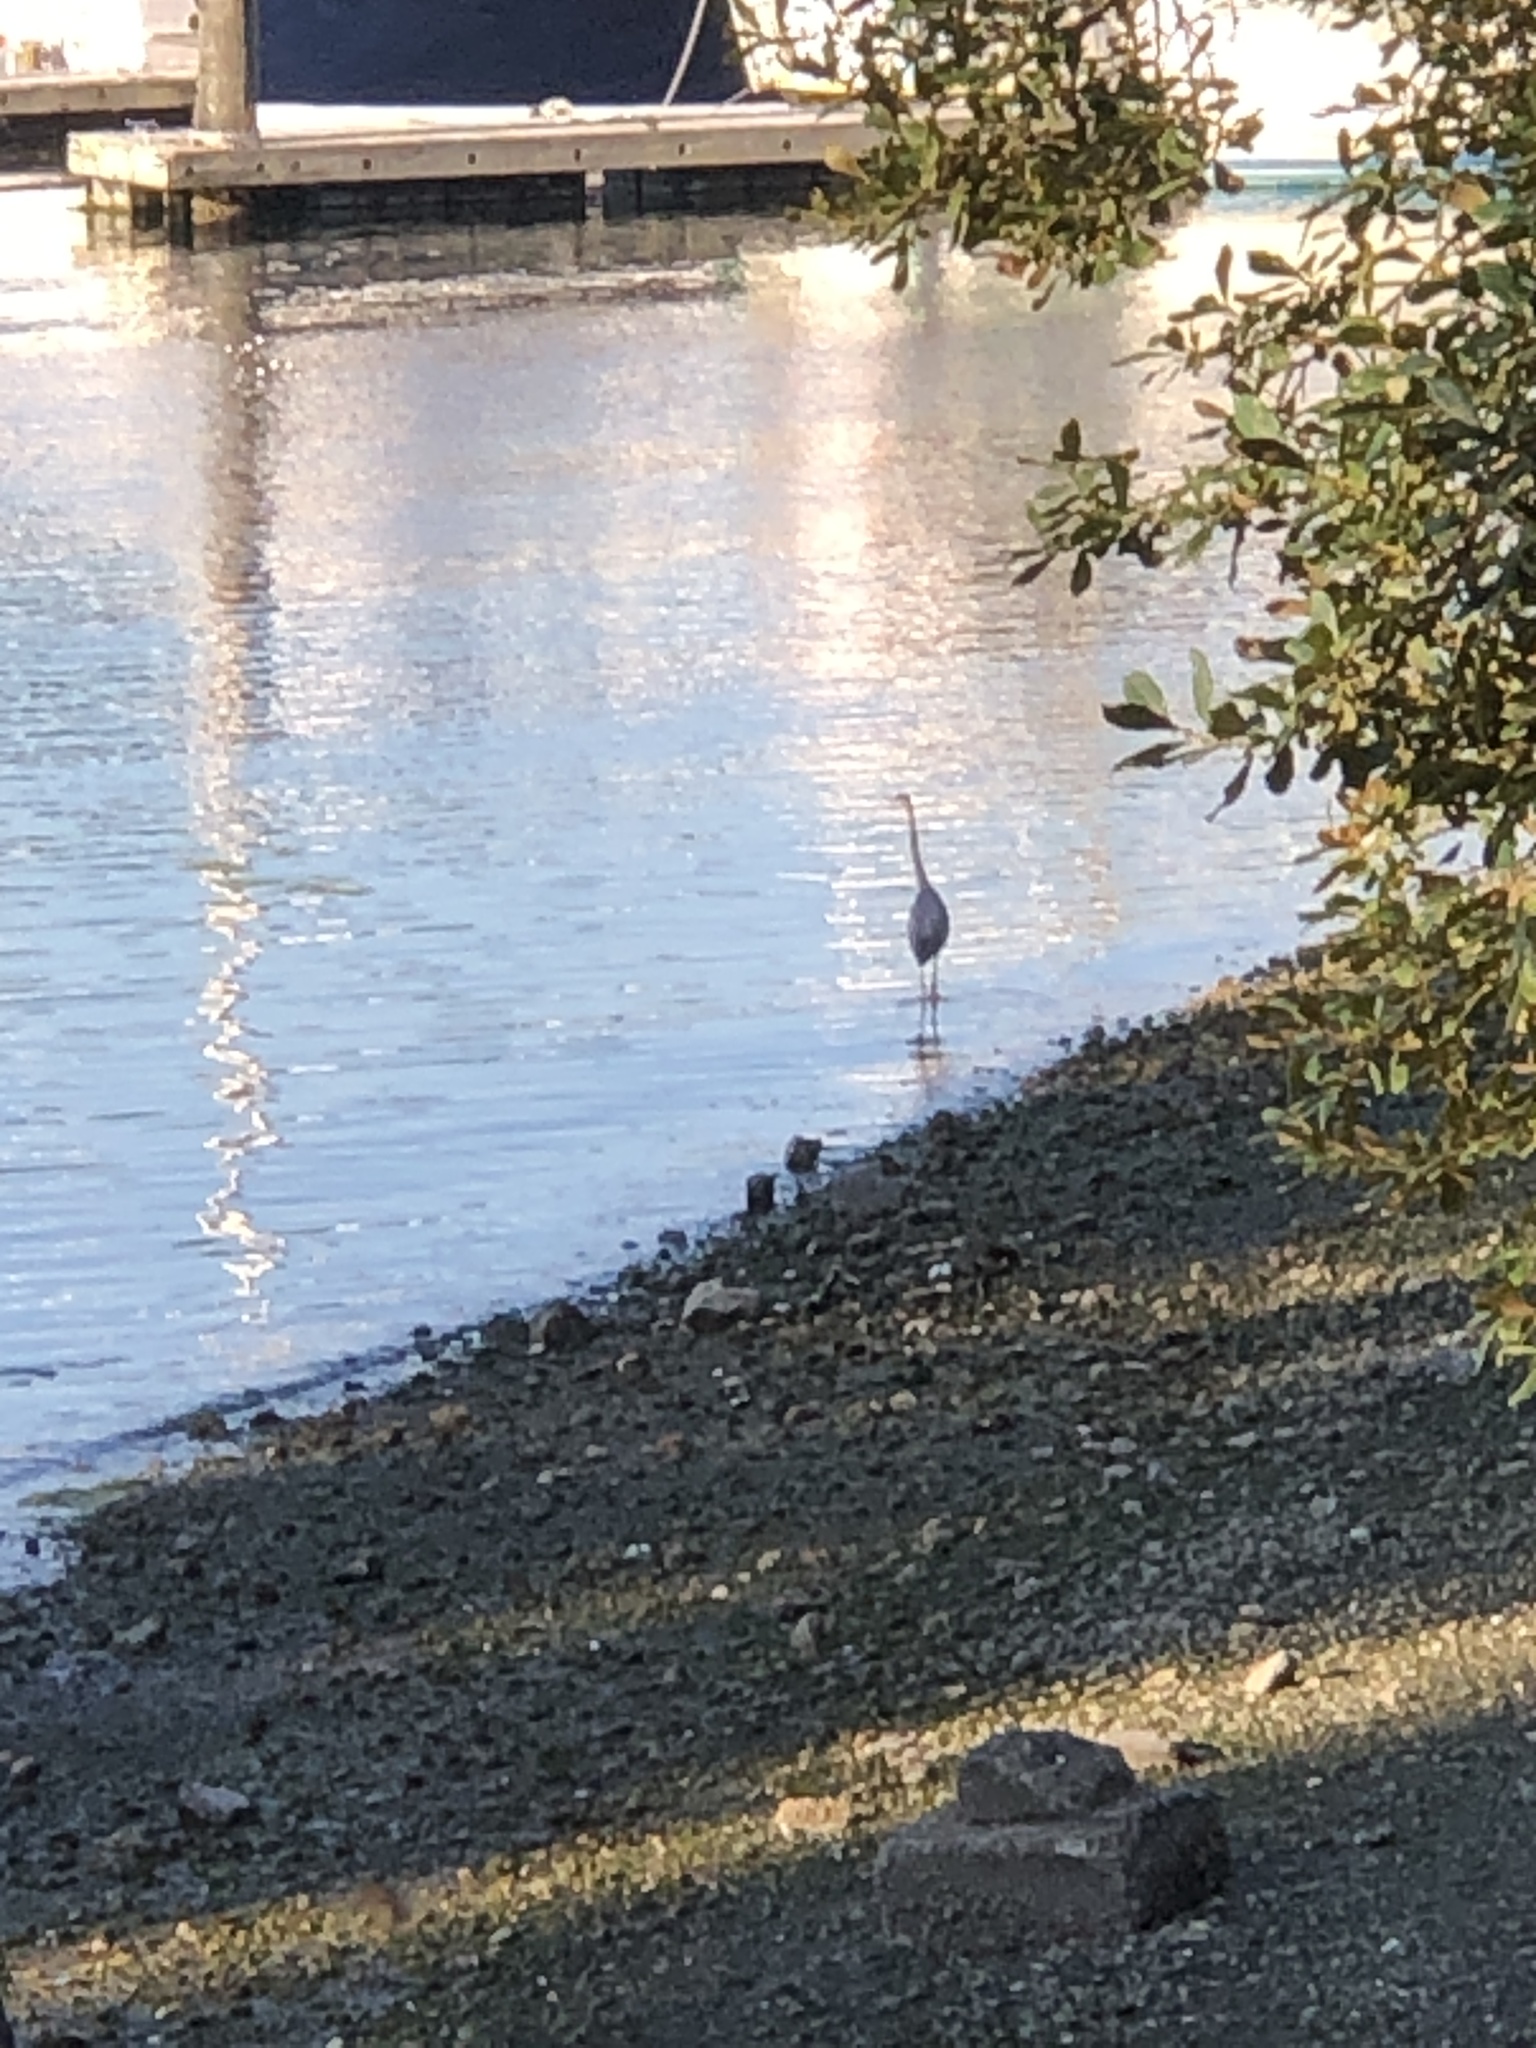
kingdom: Animalia
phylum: Chordata
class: Aves
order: Pelecaniformes
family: Ardeidae
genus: Ardea
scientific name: Ardea herodias
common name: Great blue heron
